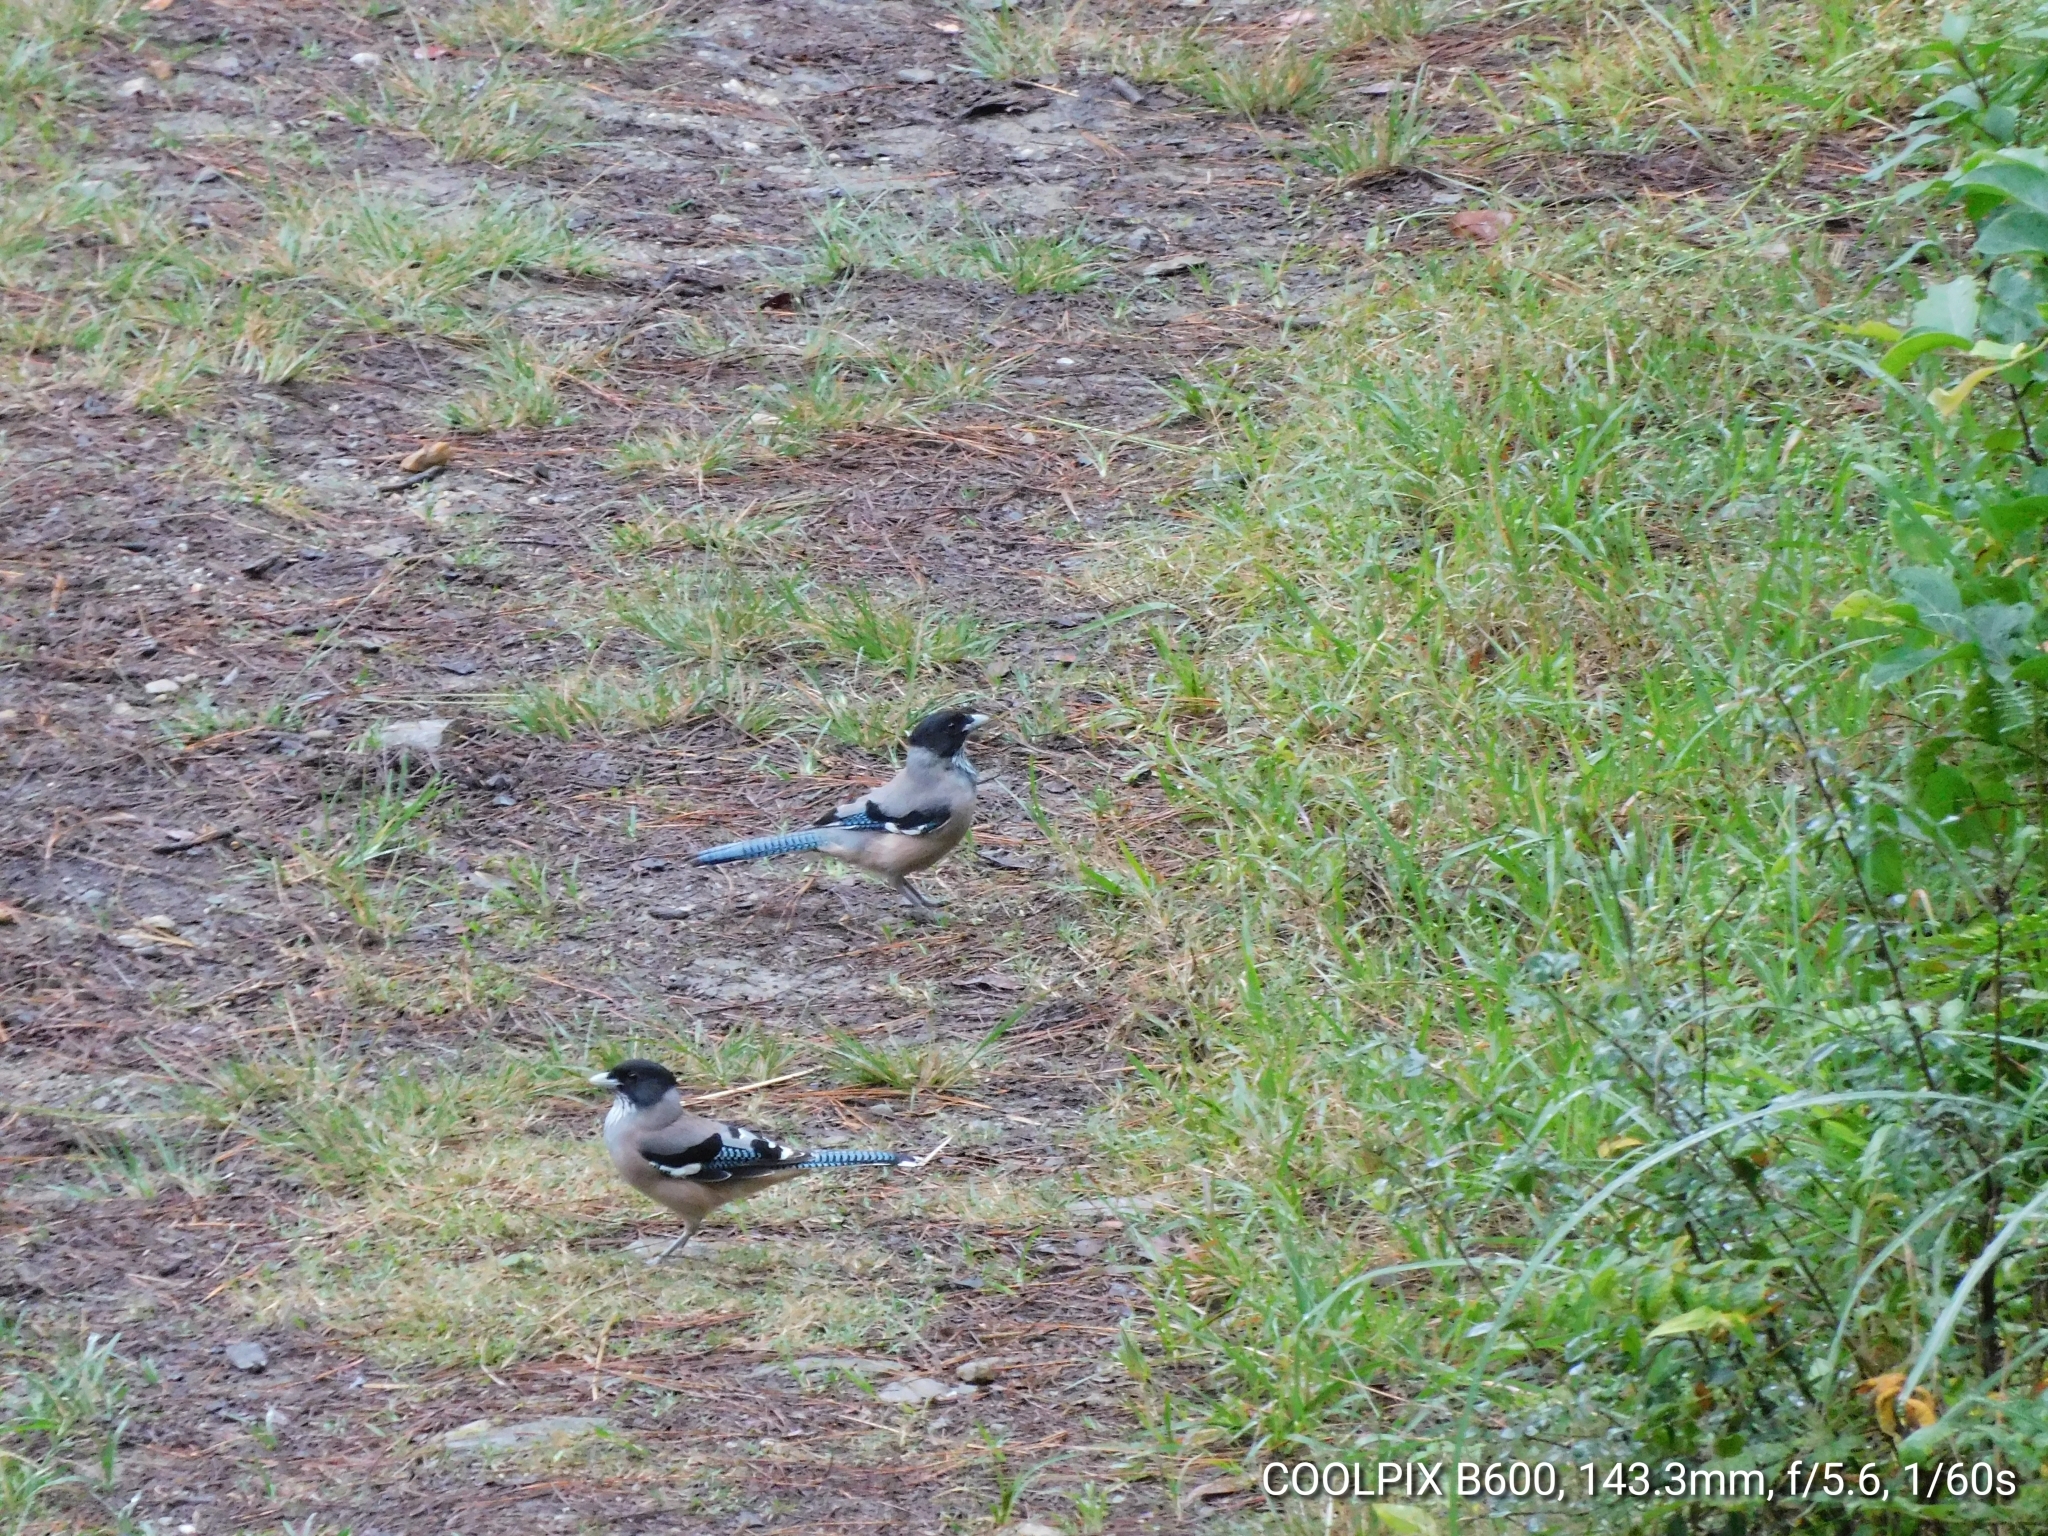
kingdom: Animalia
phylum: Chordata
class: Aves
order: Passeriformes
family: Corvidae
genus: Garrulus
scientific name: Garrulus lanceolatus
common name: Black-headed jay
